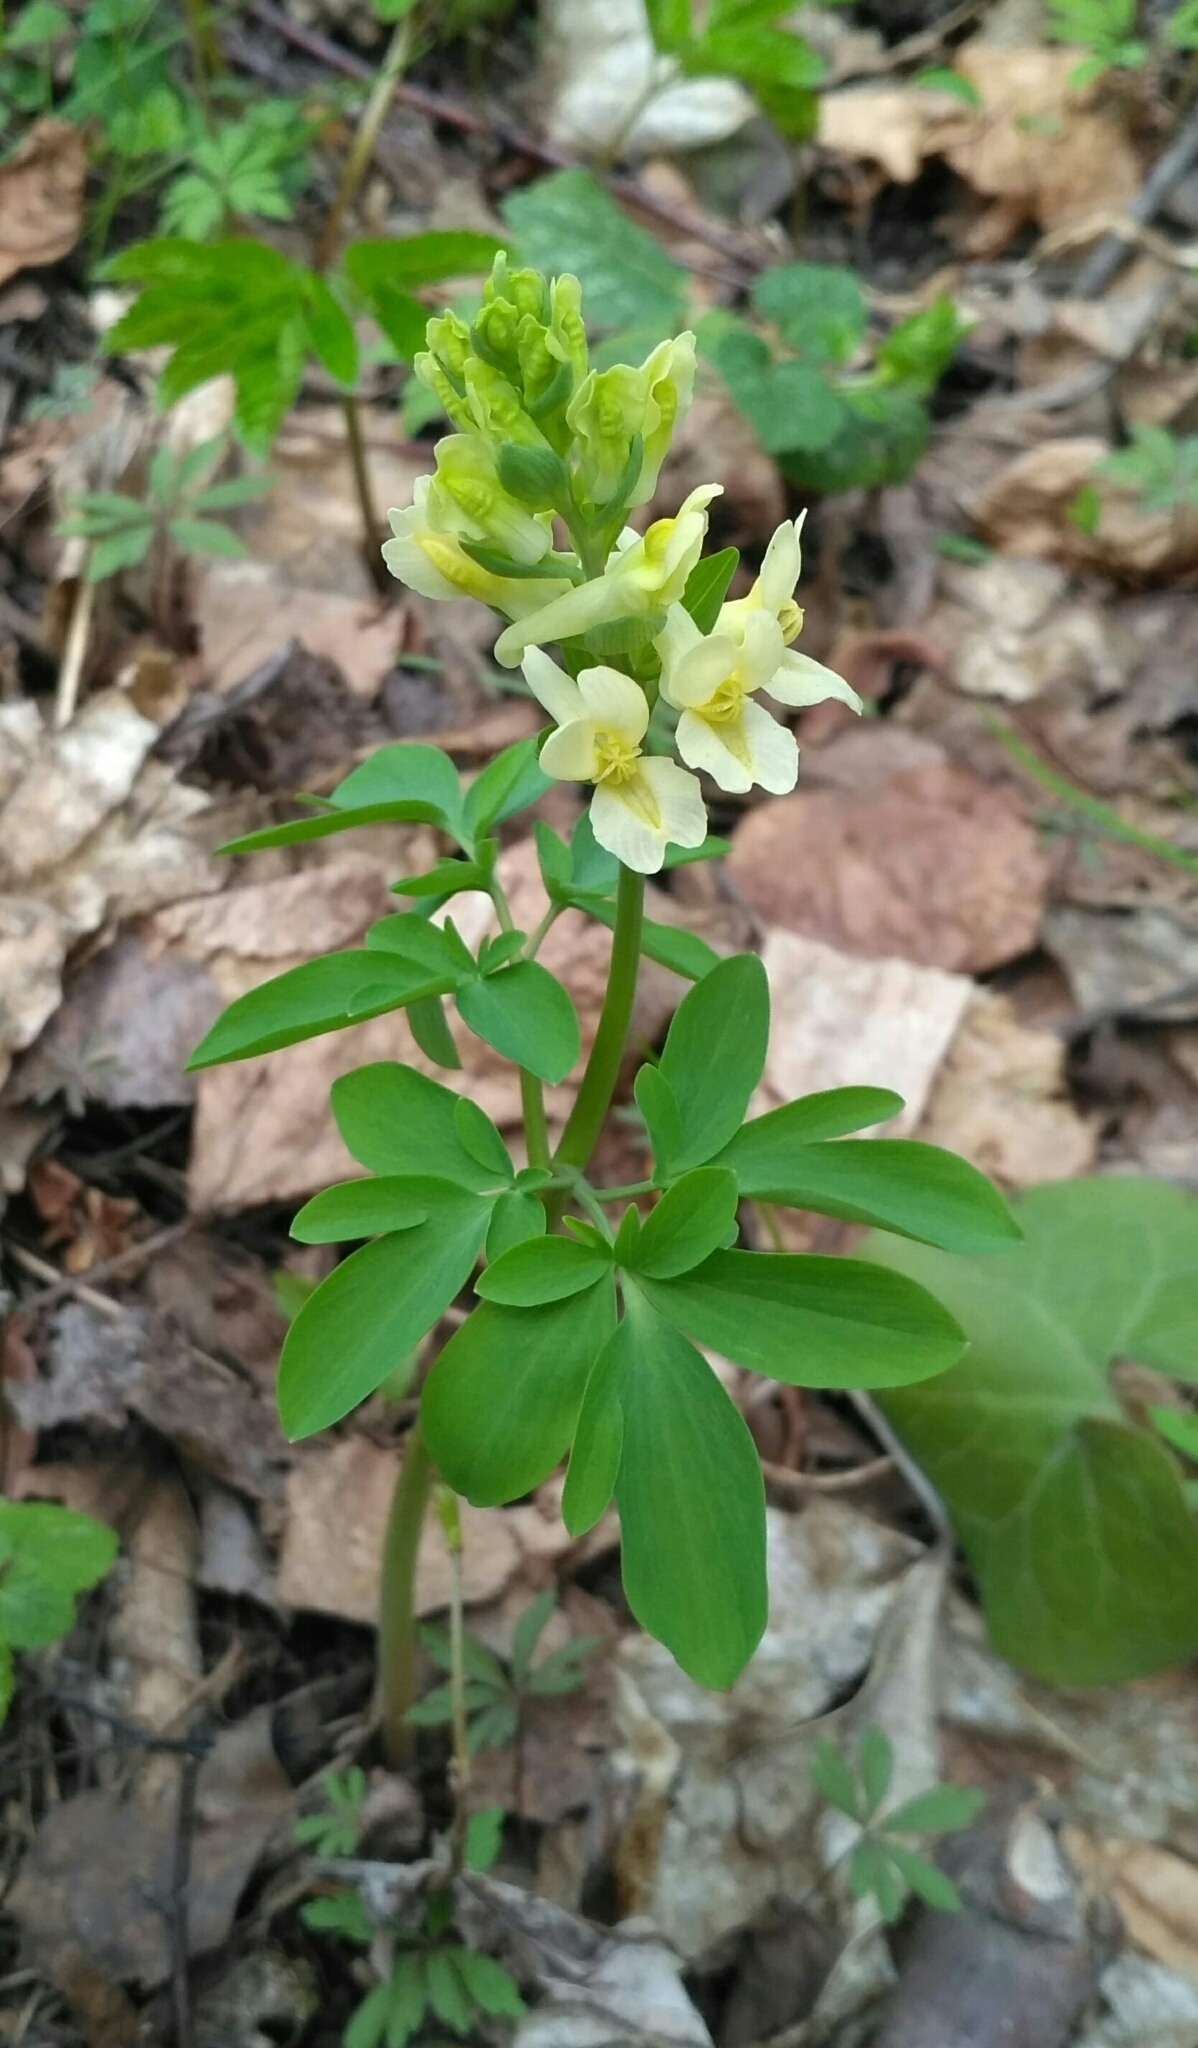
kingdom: Plantae
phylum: Tracheophyta
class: Magnoliopsida
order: Ranunculales
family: Papaveraceae
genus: Corydalis
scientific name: Corydalis cava
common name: Hollowroot
